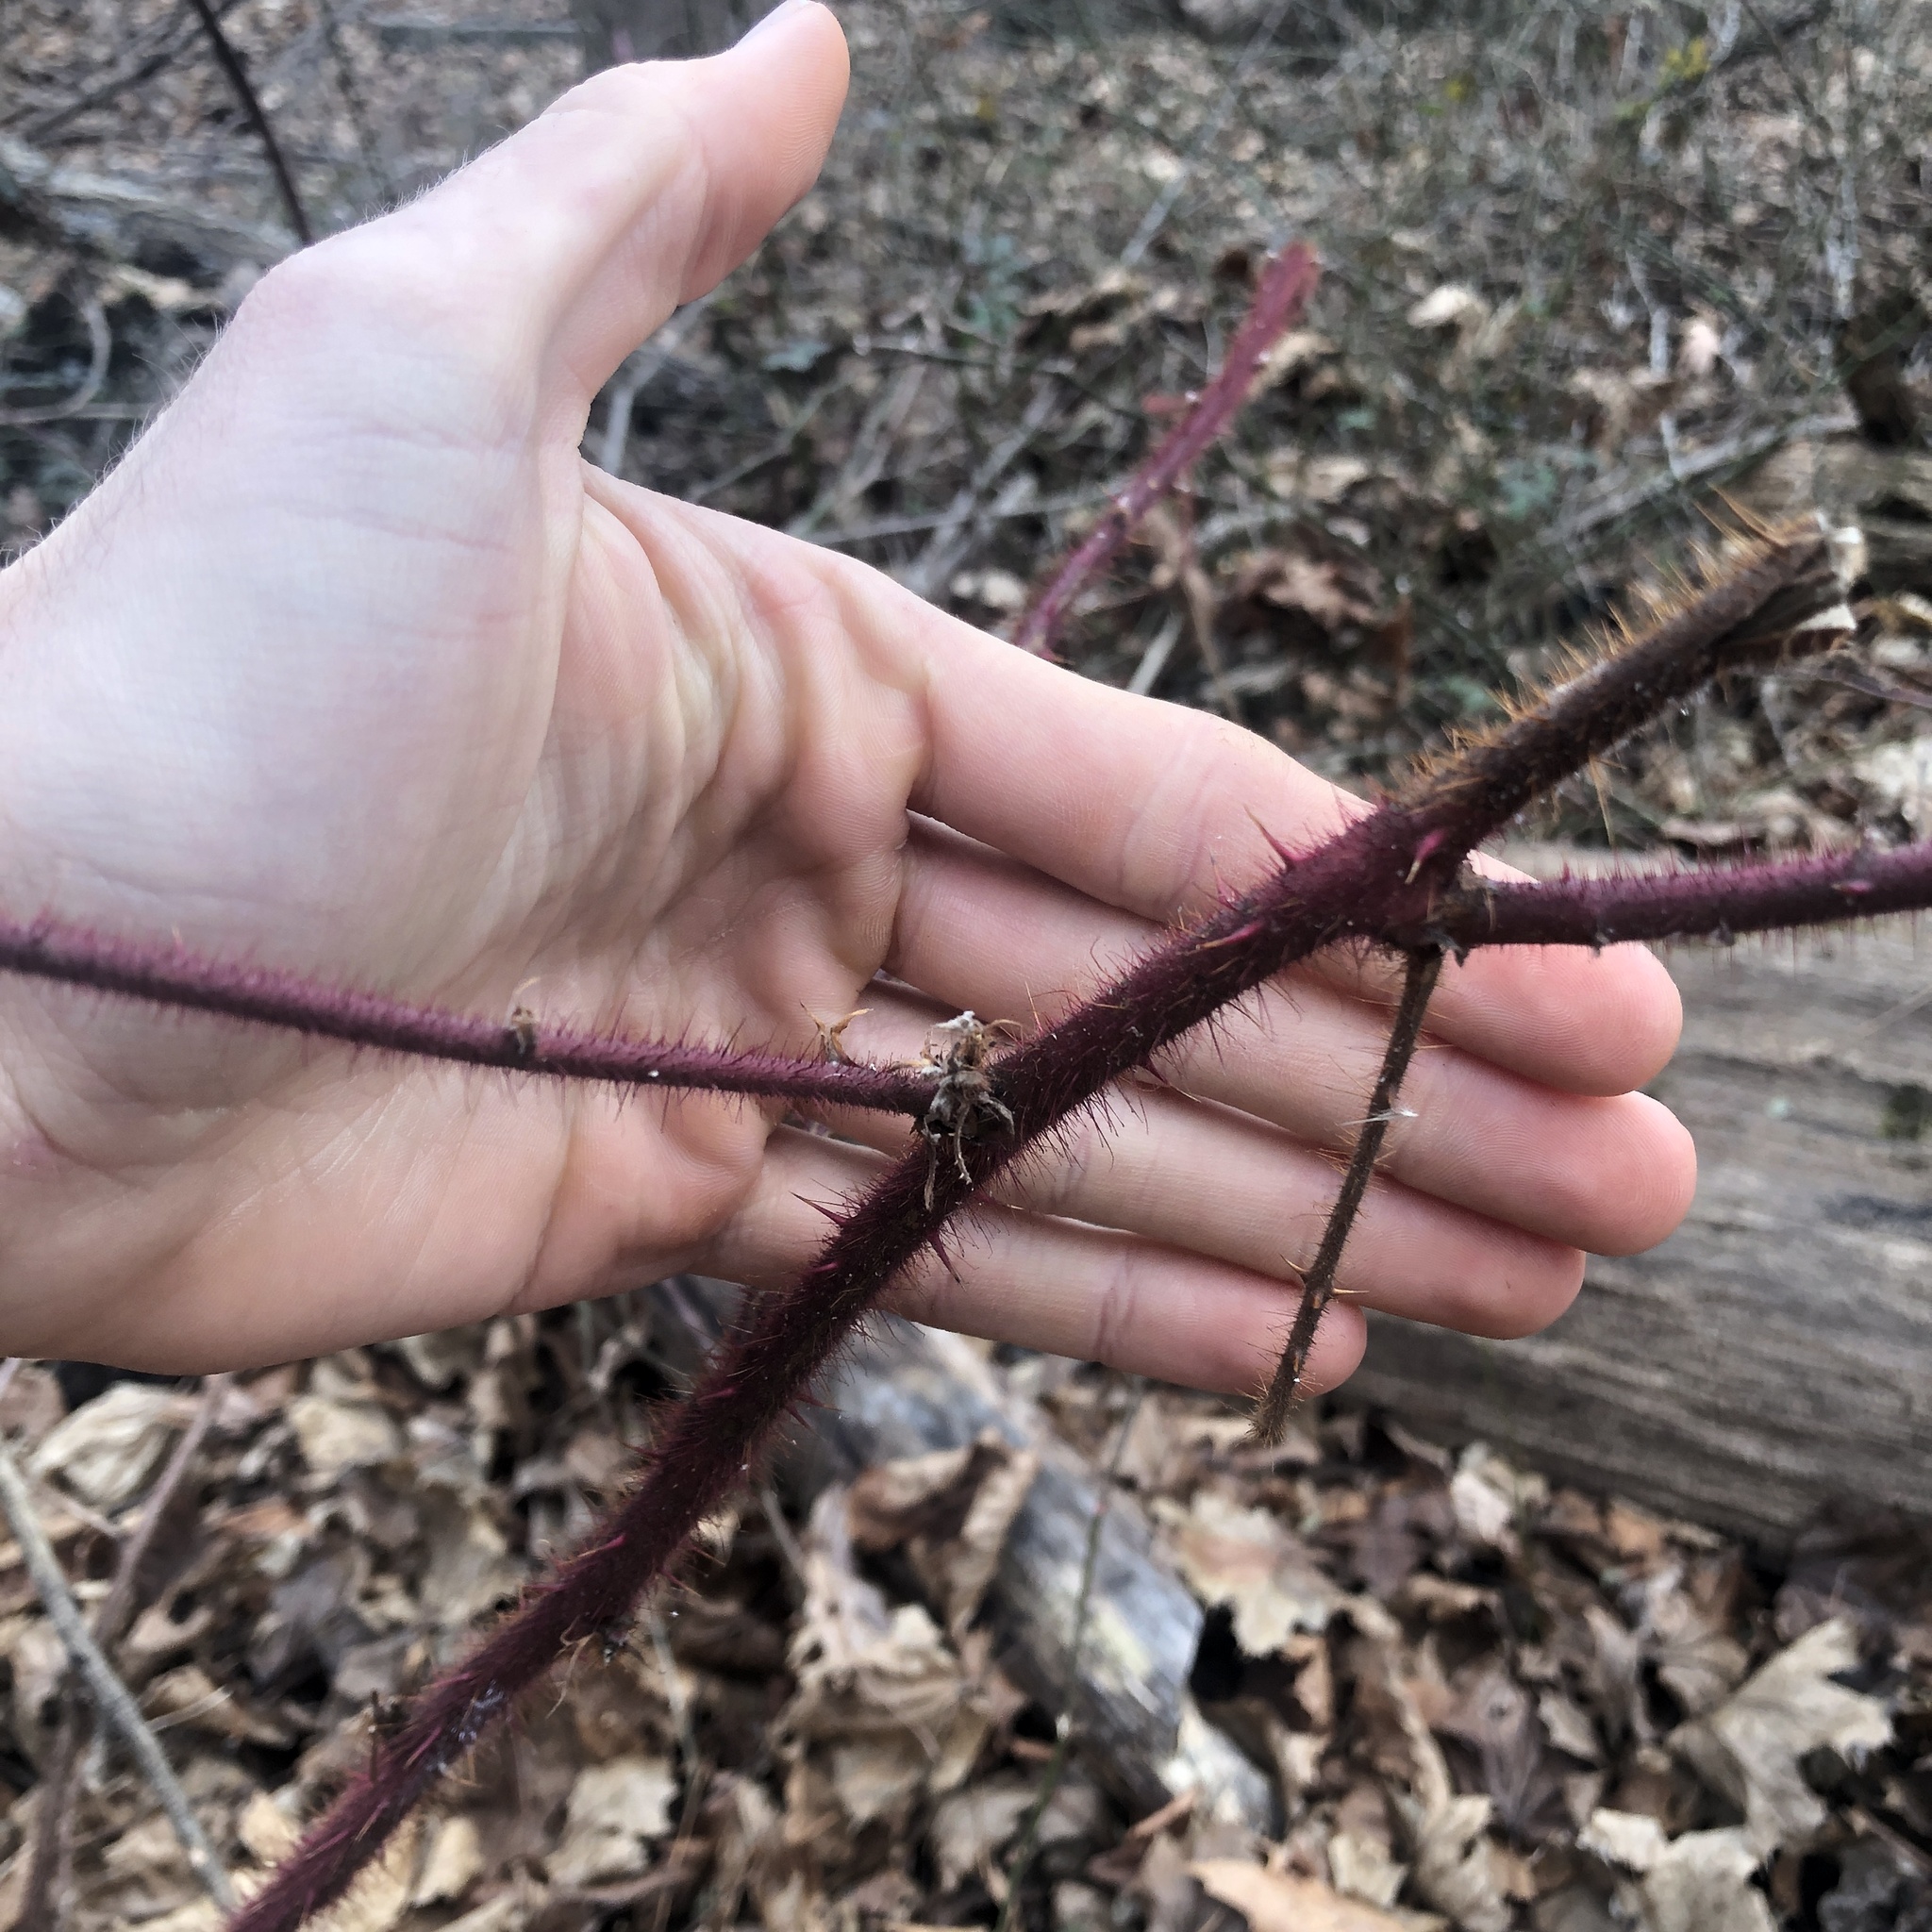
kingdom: Plantae
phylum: Tracheophyta
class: Magnoliopsida
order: Rosales
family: Rosaceae
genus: Rubus
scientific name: Rubus phoenicolasius
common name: Japanese wineberry
